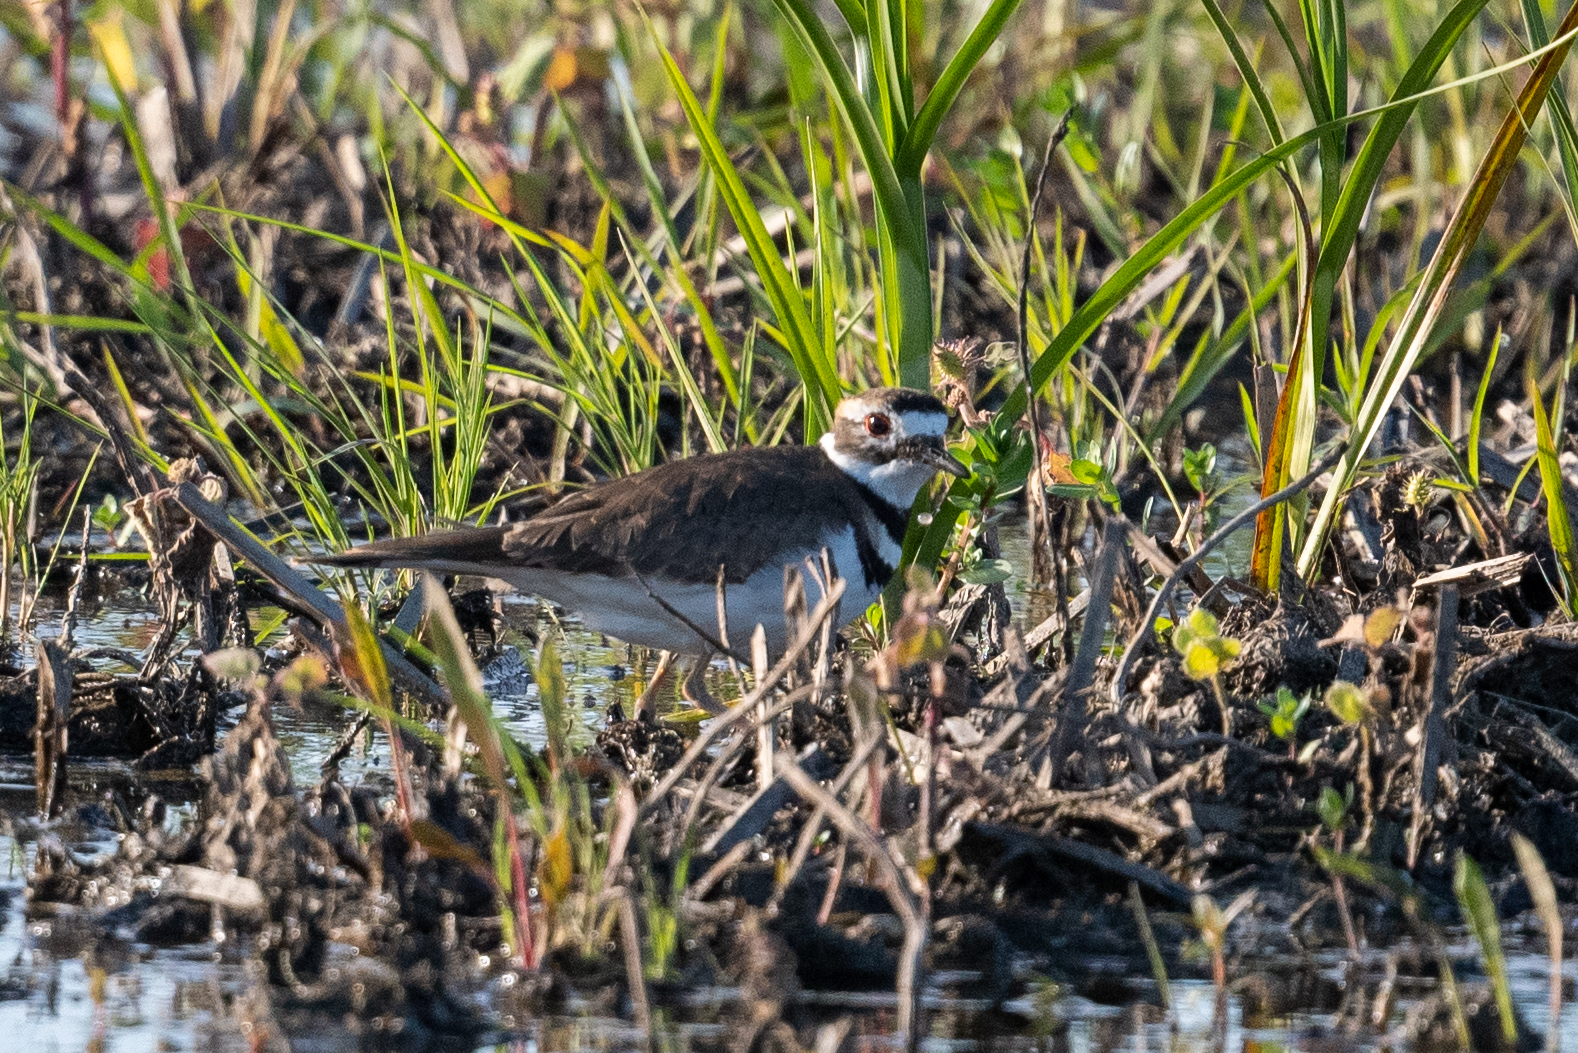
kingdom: Animalia
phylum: Chordata
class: Aves
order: Charadriiformes
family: Charadriidae
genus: Charadrius
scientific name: Charadrius vociferus
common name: Killdeer
